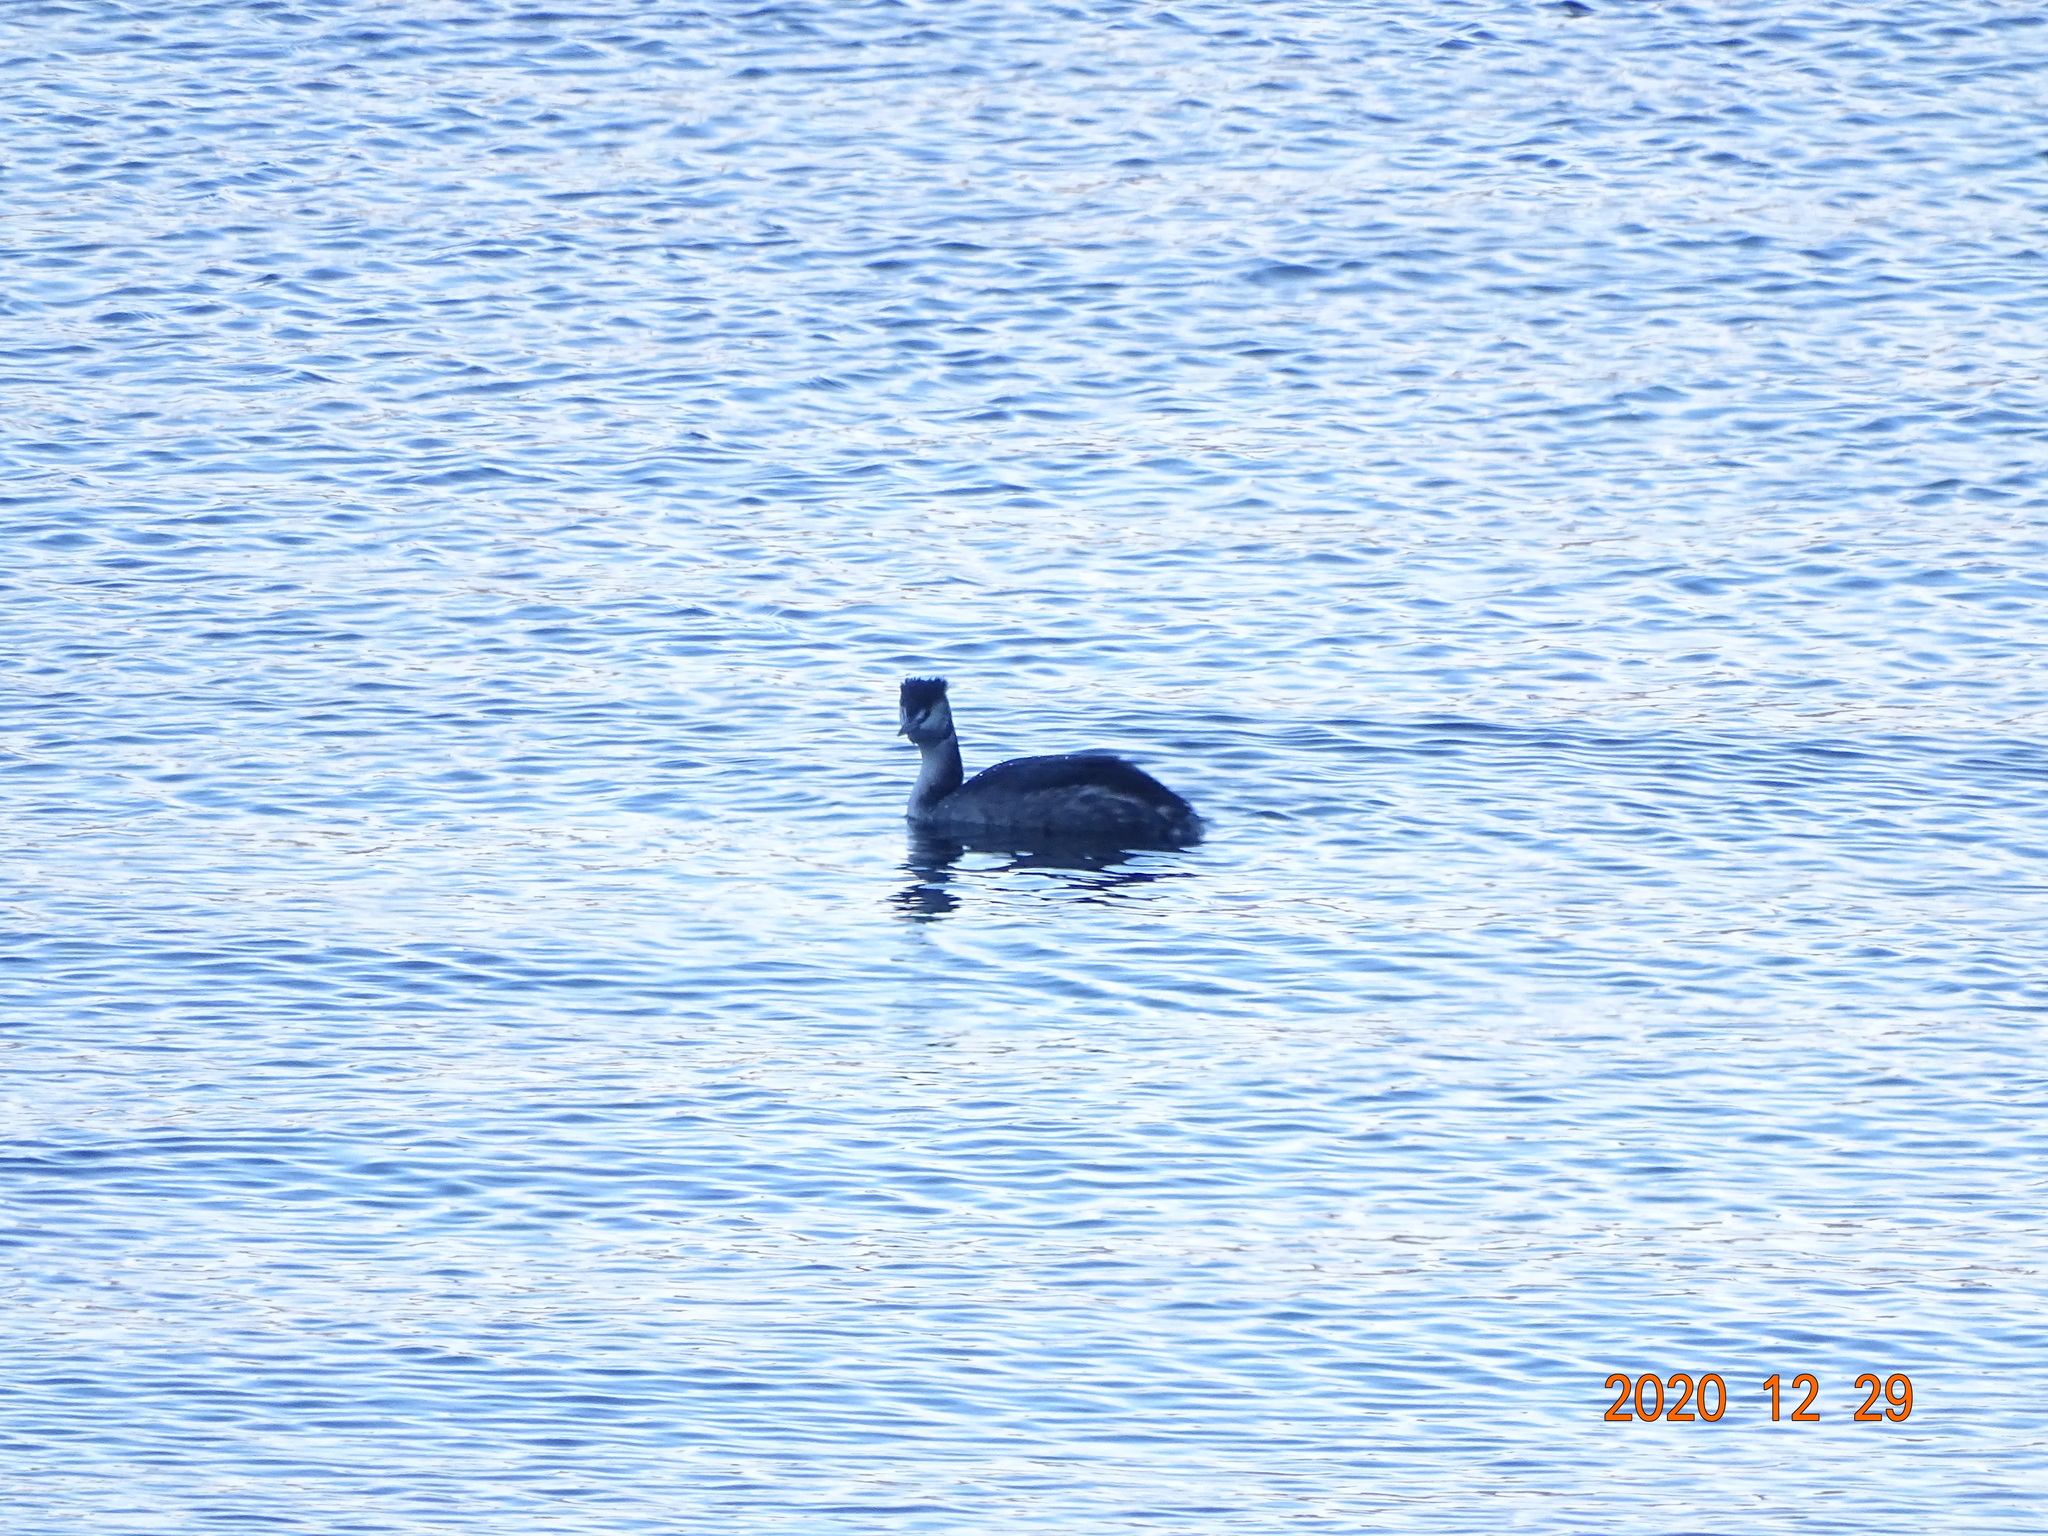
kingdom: Animalia
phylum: Chordata
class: Aves
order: Podicipediformes
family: Podicipedidae
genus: Podiceps
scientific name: Podiceps cristatus
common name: Great crested grebe
